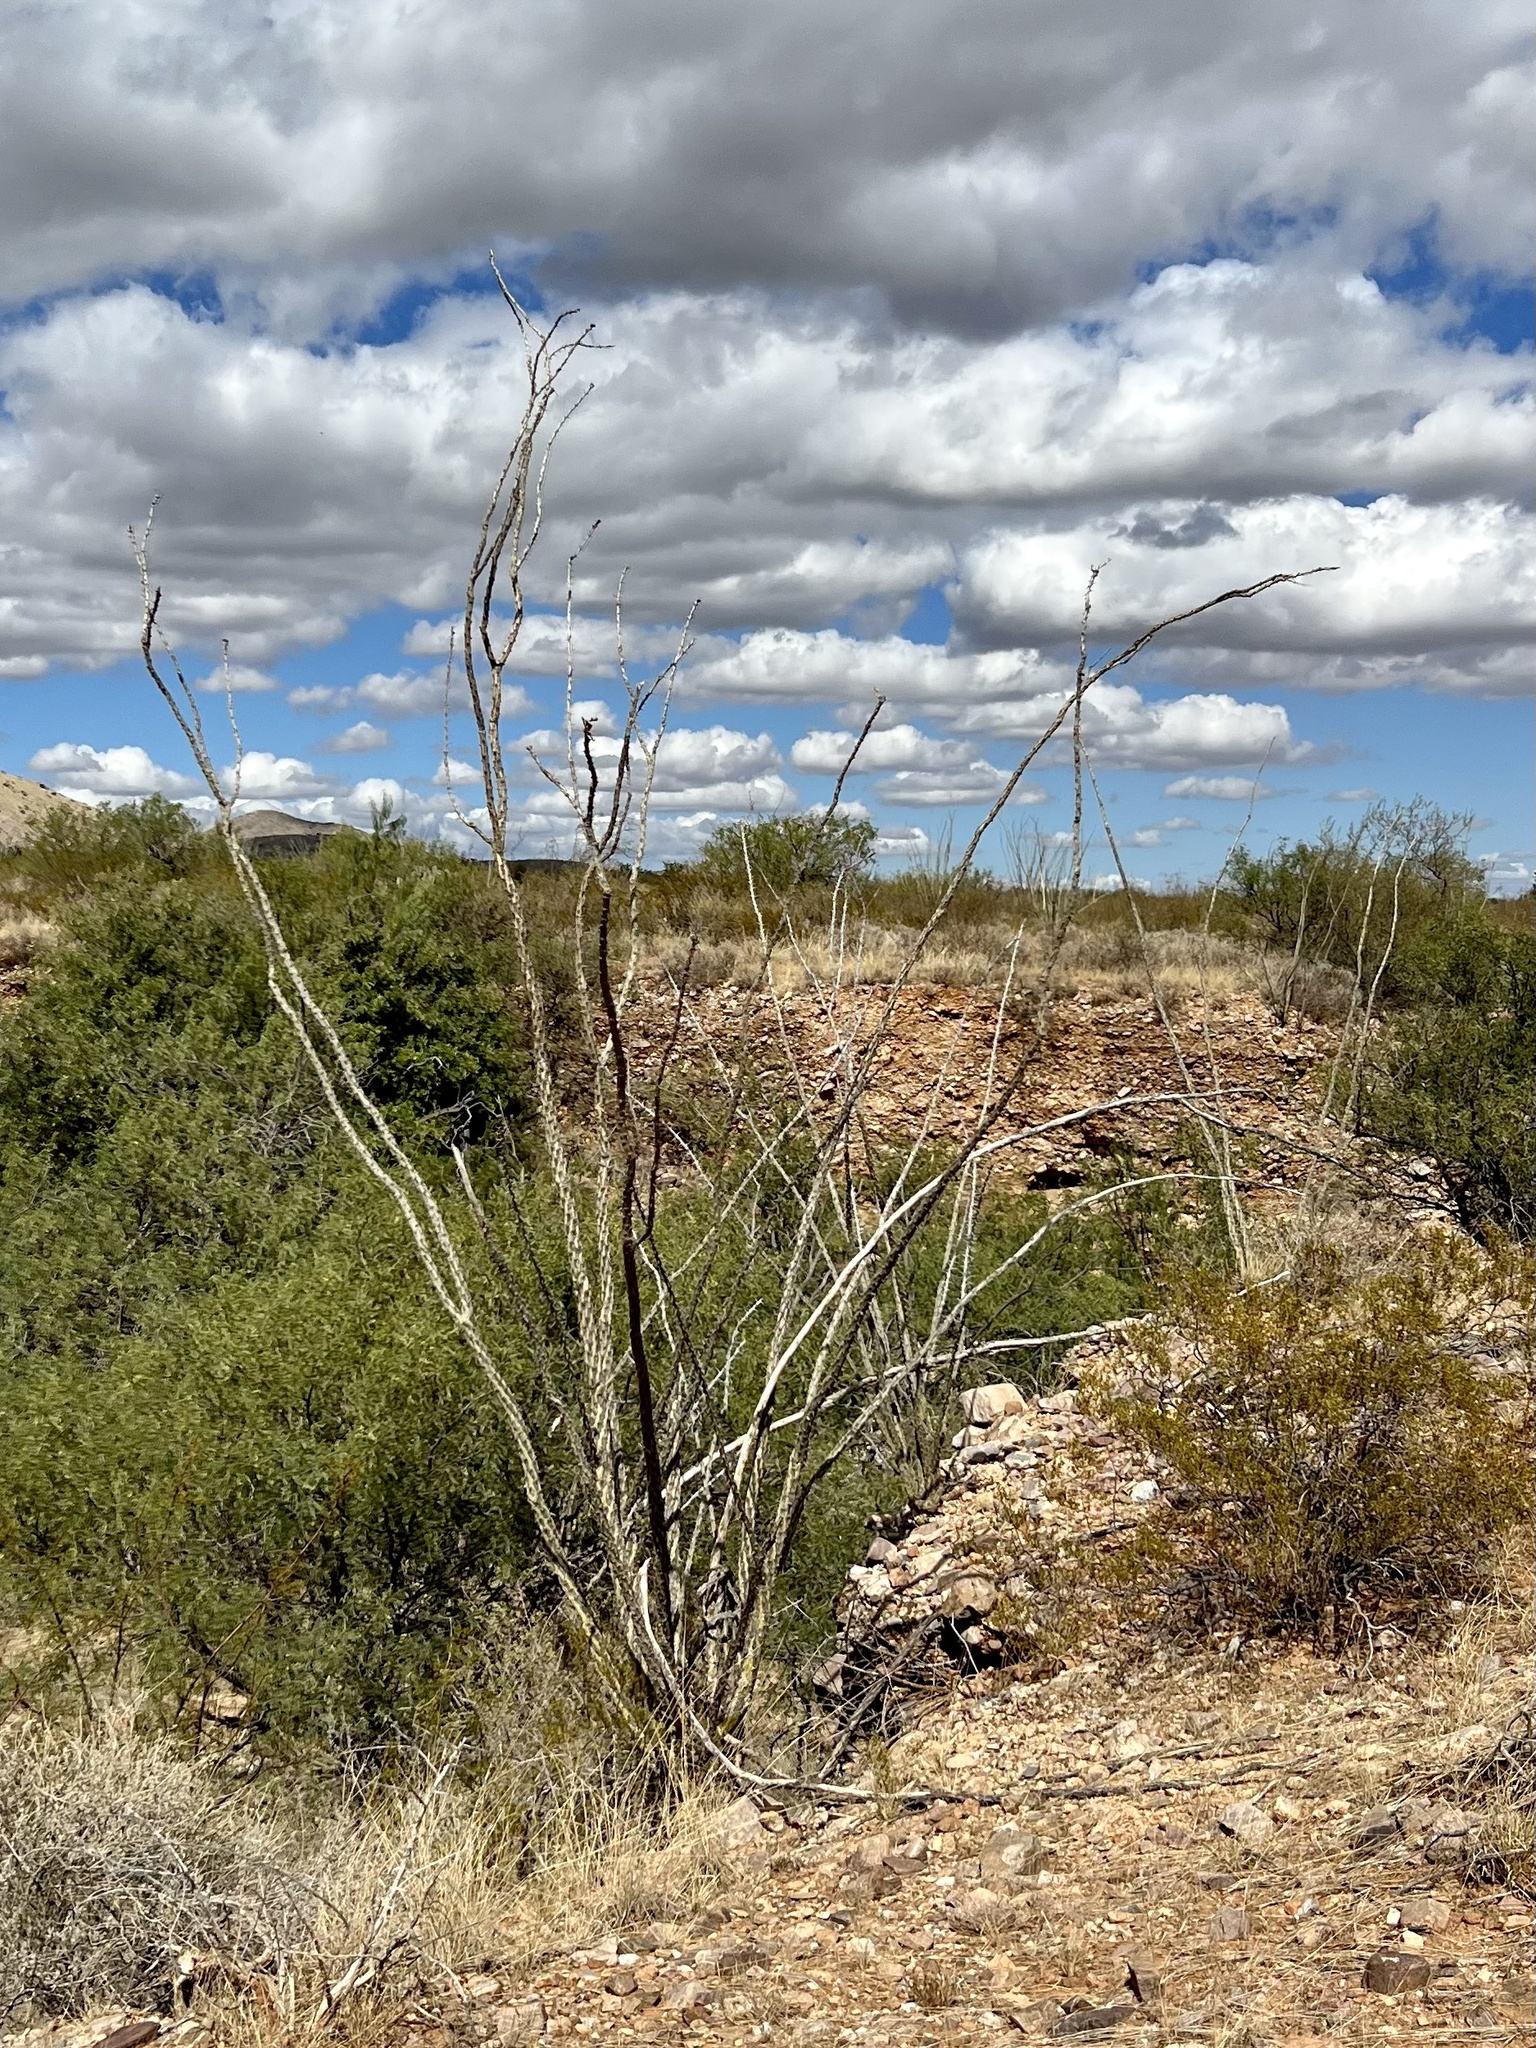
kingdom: Plantae
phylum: Tracheophyta
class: Magnoliopsida
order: Ericales
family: Fouquieriaceae
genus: Fouquieria
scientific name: Fouquieria splendens
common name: Vine-cactus
